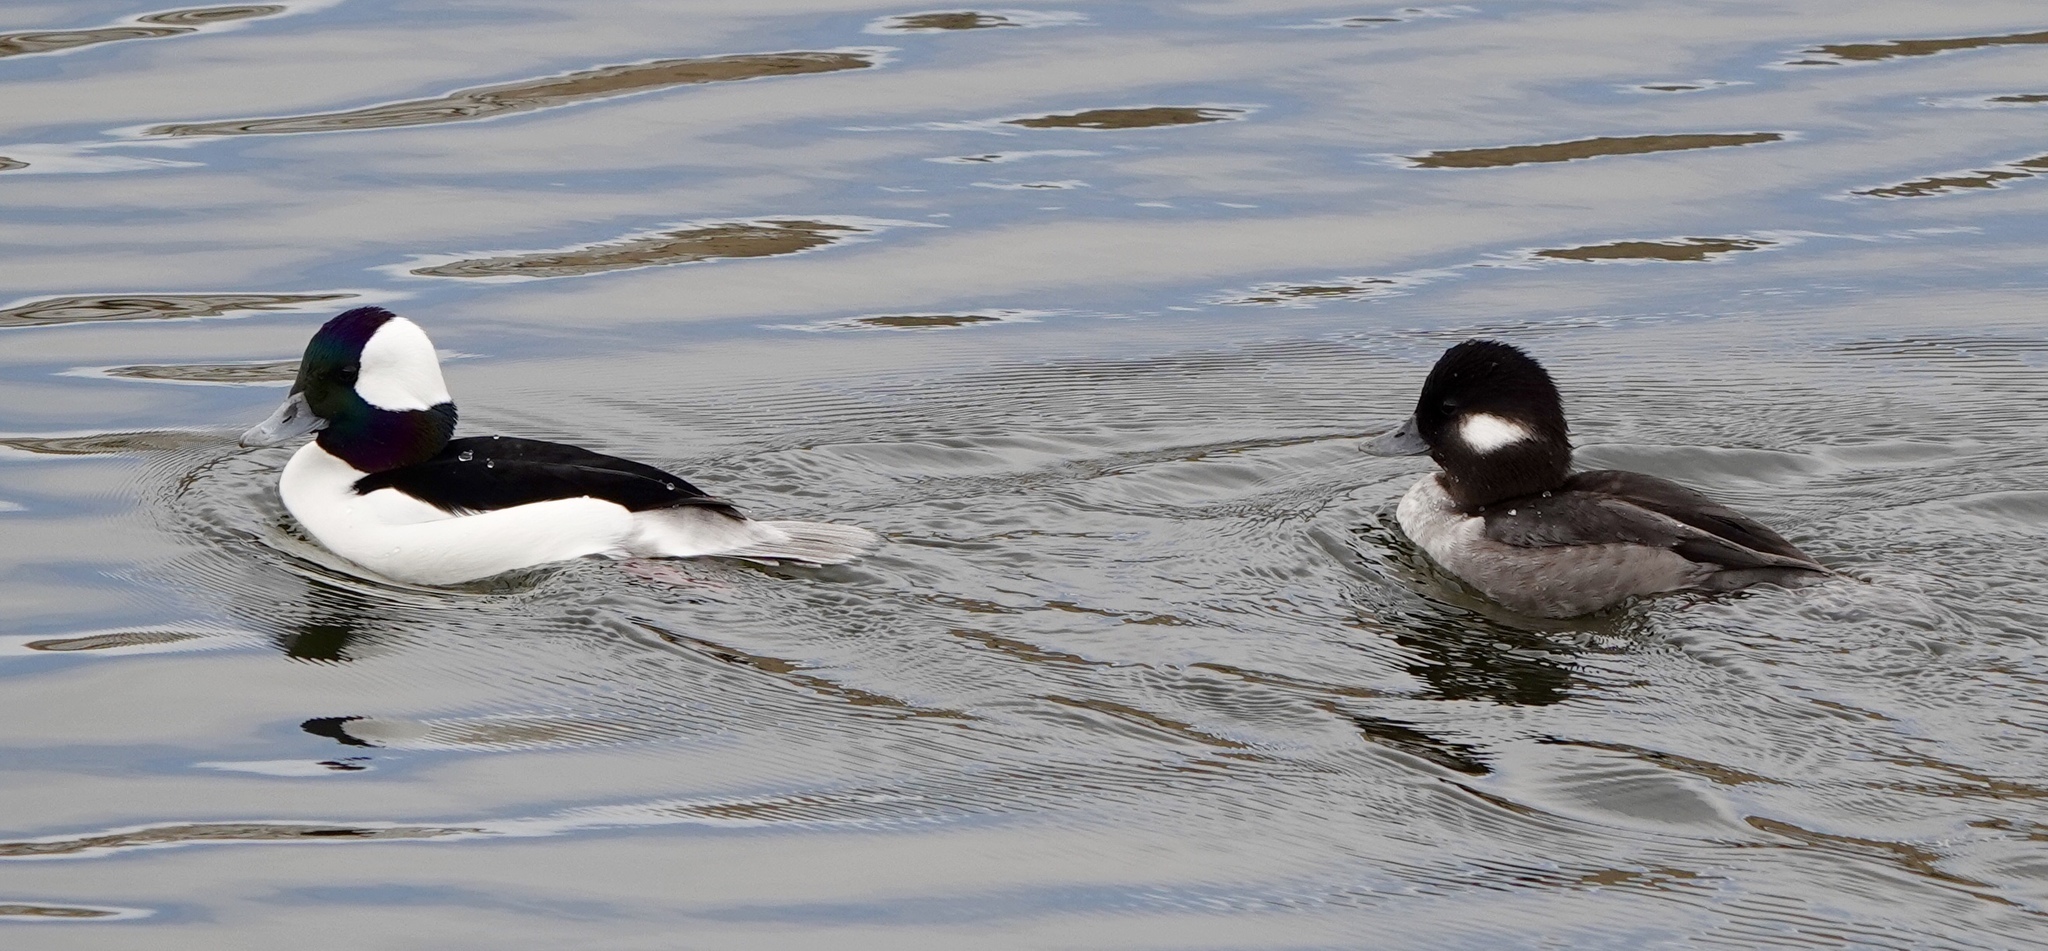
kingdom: Animalia
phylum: Chordata
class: Aves
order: Anseriformes
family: Anatidae
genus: Bucephala
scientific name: Bucephala albeola
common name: Bufflehead
